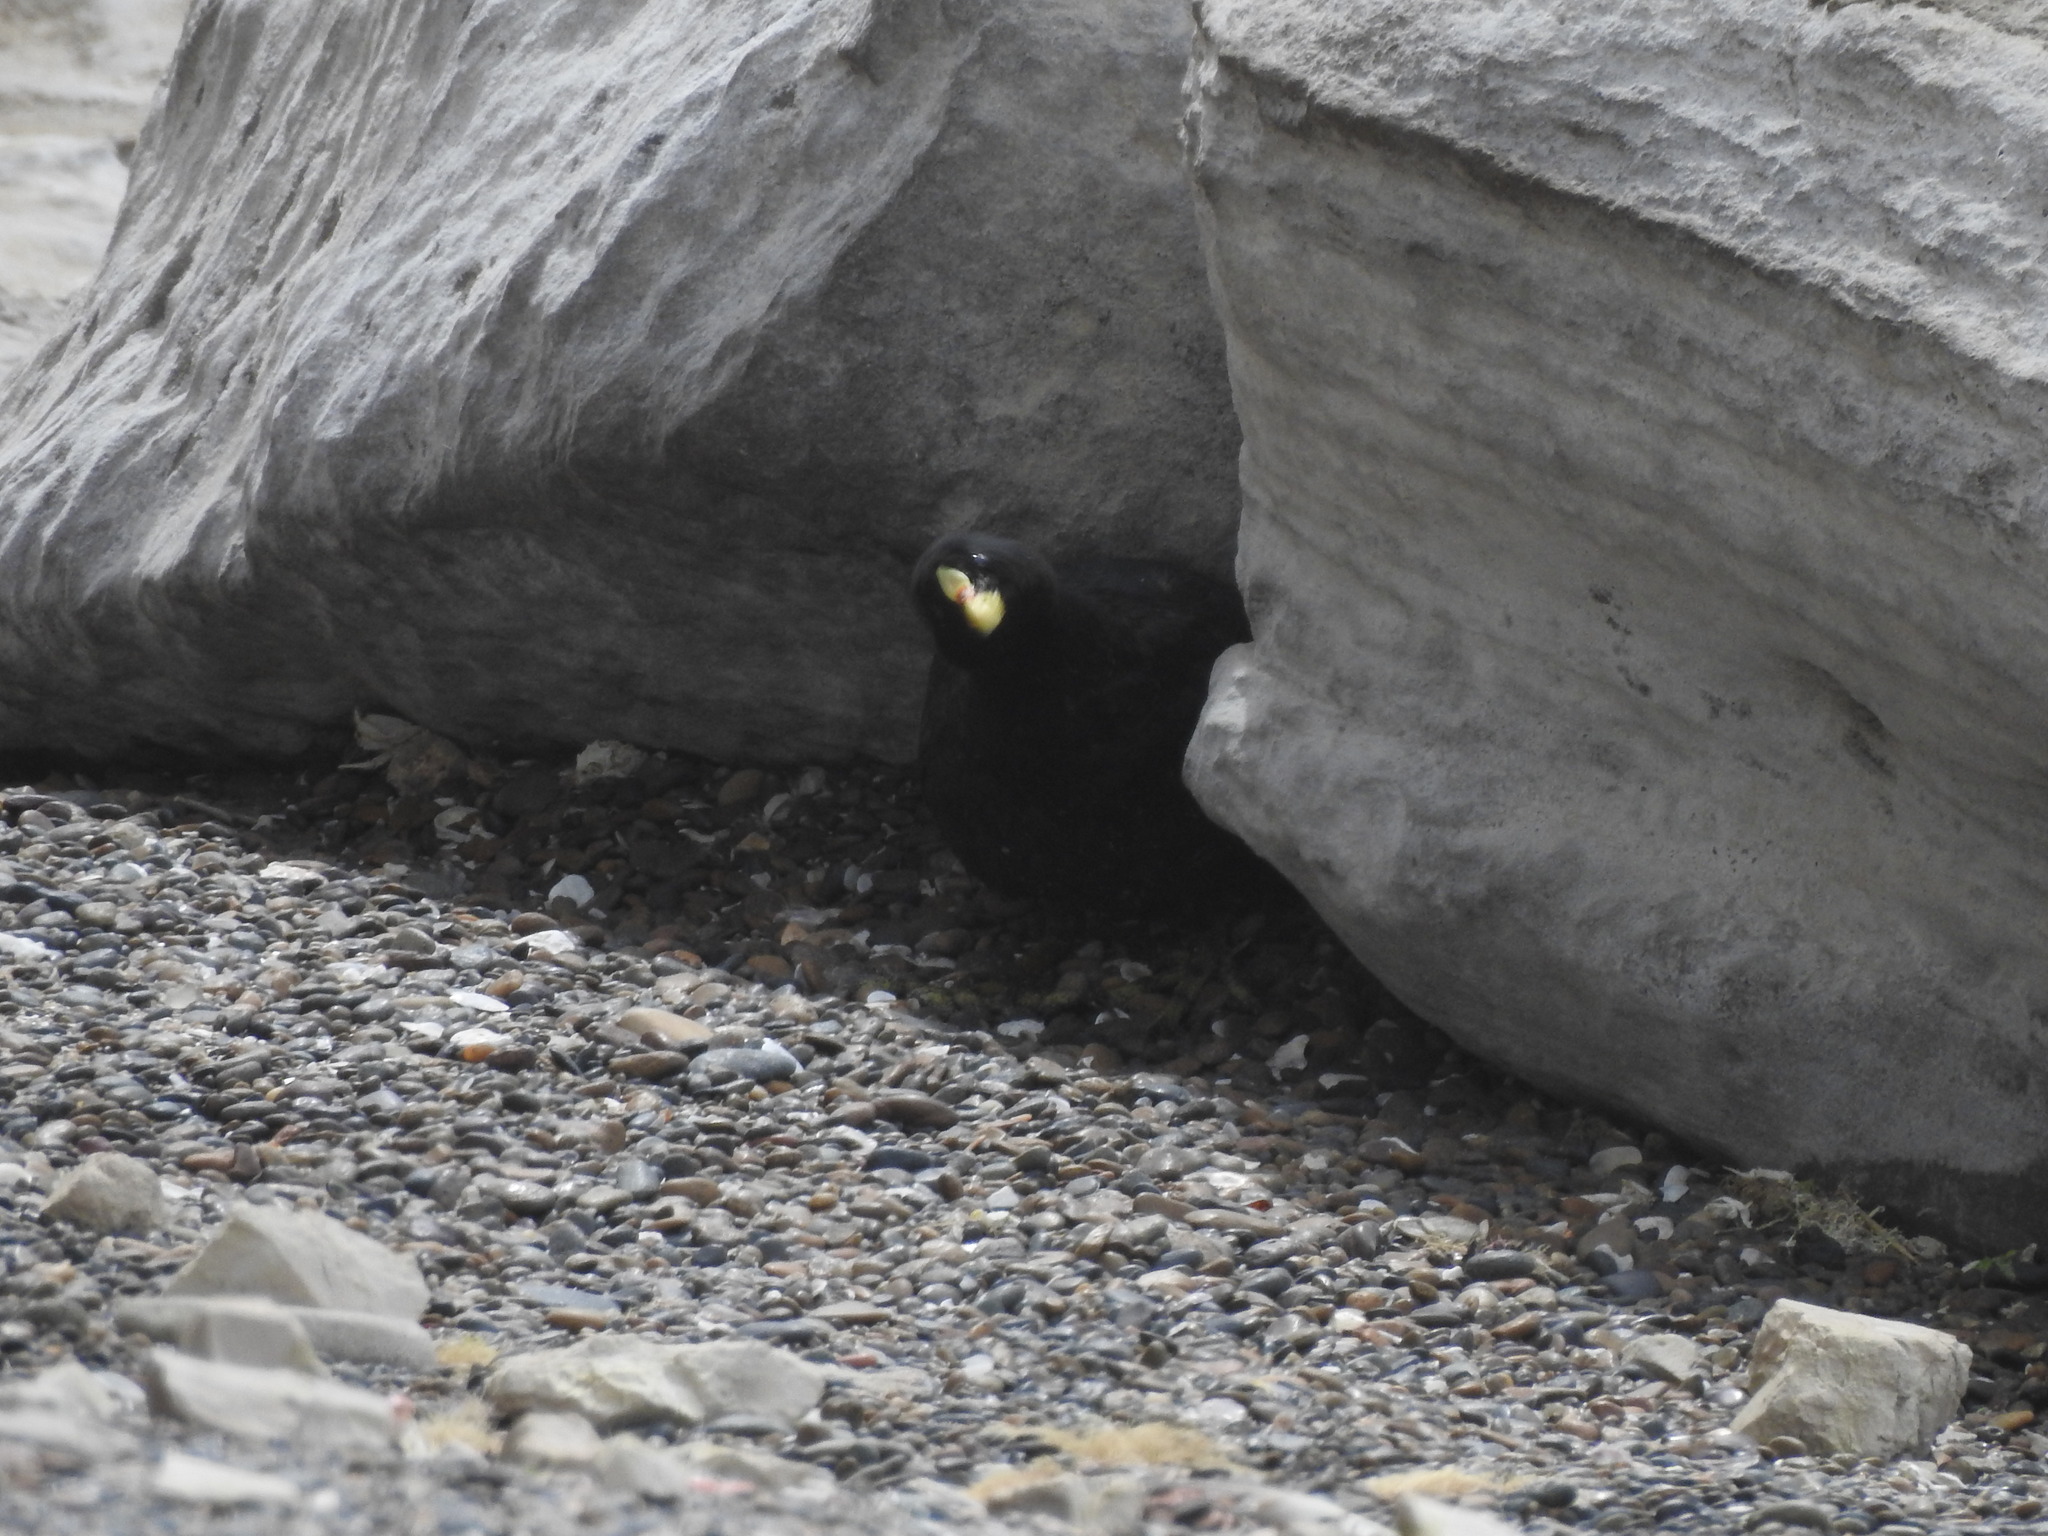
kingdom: Animalia
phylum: Chordata
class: Aves
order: Gruiformes
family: Rallidae
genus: Fulica
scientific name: Fulica armillata
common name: Red-gartered coot
